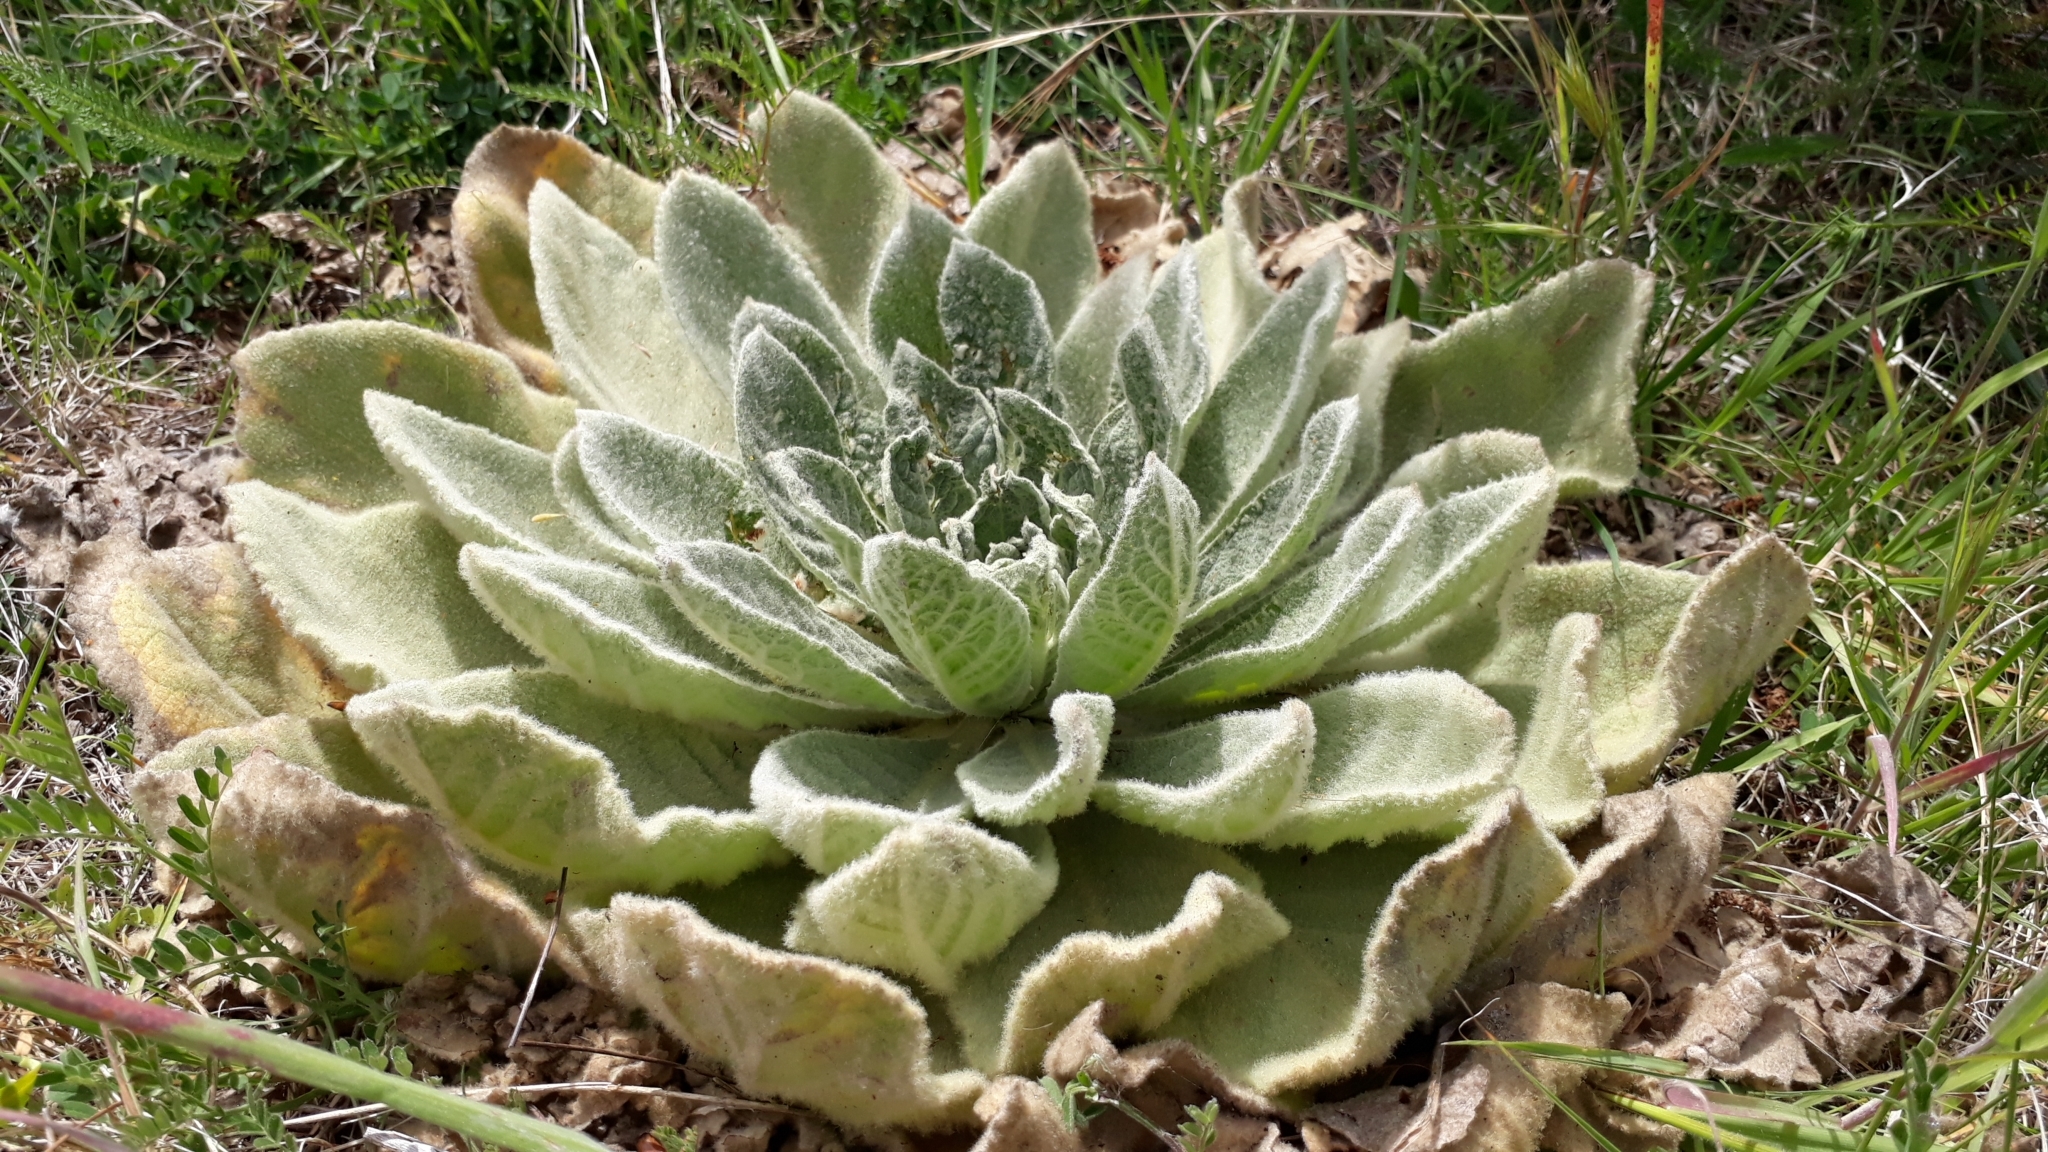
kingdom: Plantae
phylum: Tracheophyta
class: Magnoliopsida
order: Lamiales
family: Scrophulariaceae
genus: Verbascum
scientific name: Verbascum thapsus
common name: Common mullein
